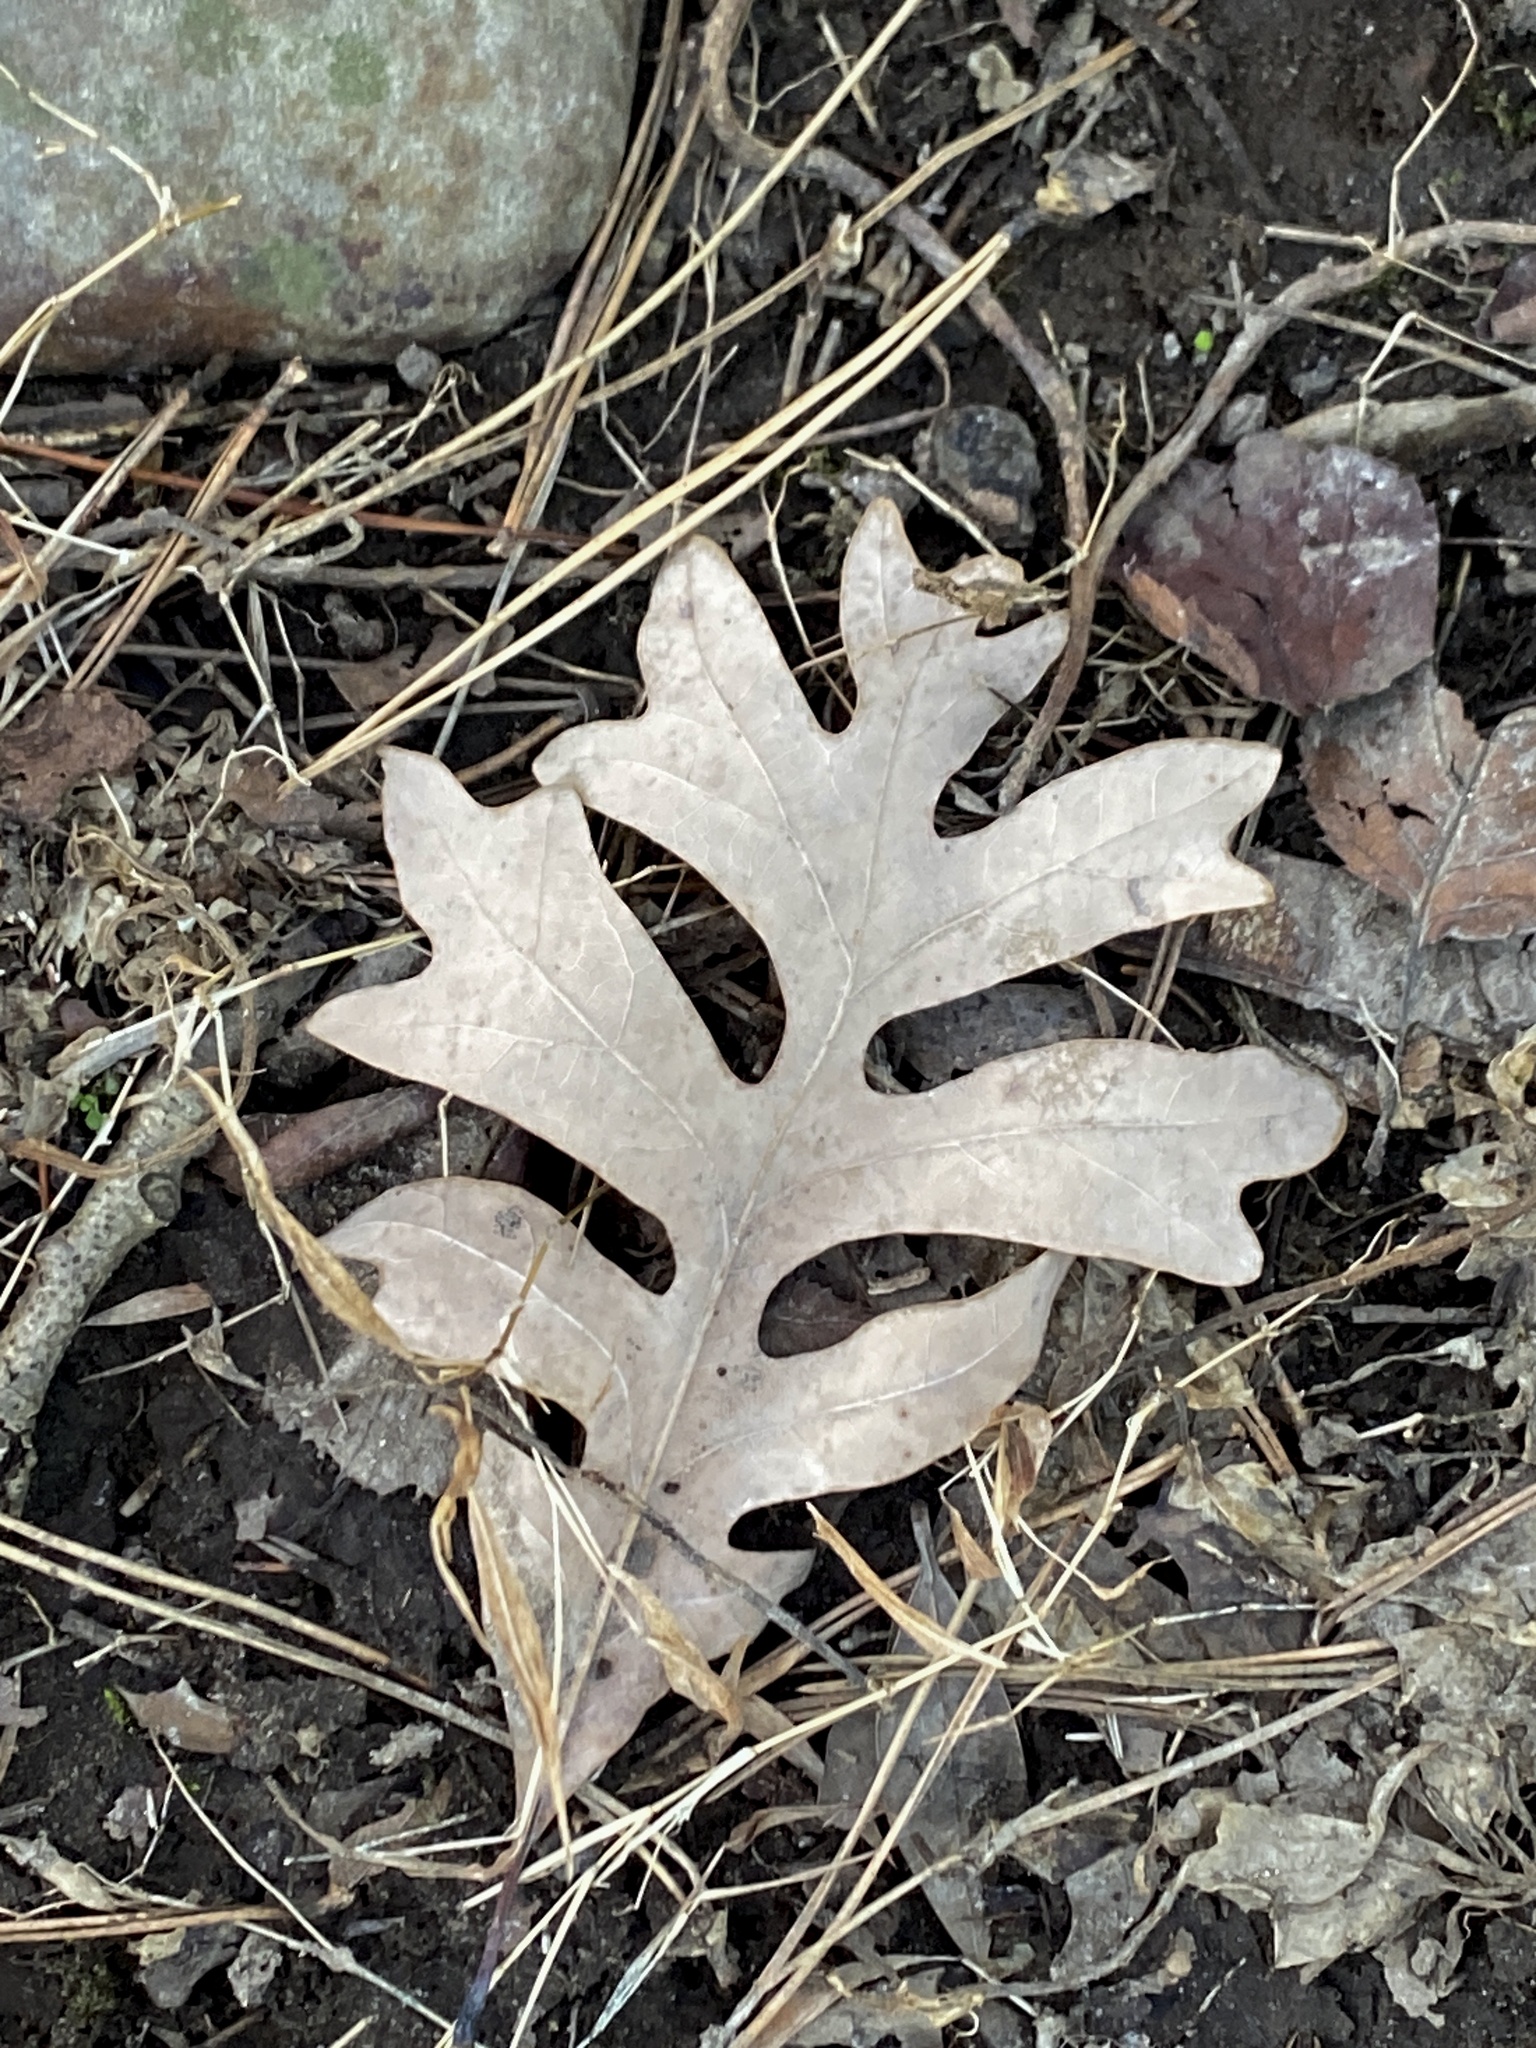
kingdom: Plantae
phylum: Tracheophyta
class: Magnoliopsida
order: Fagales
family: Fagaceae
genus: Quercus
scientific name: Quercus alba
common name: White oak
